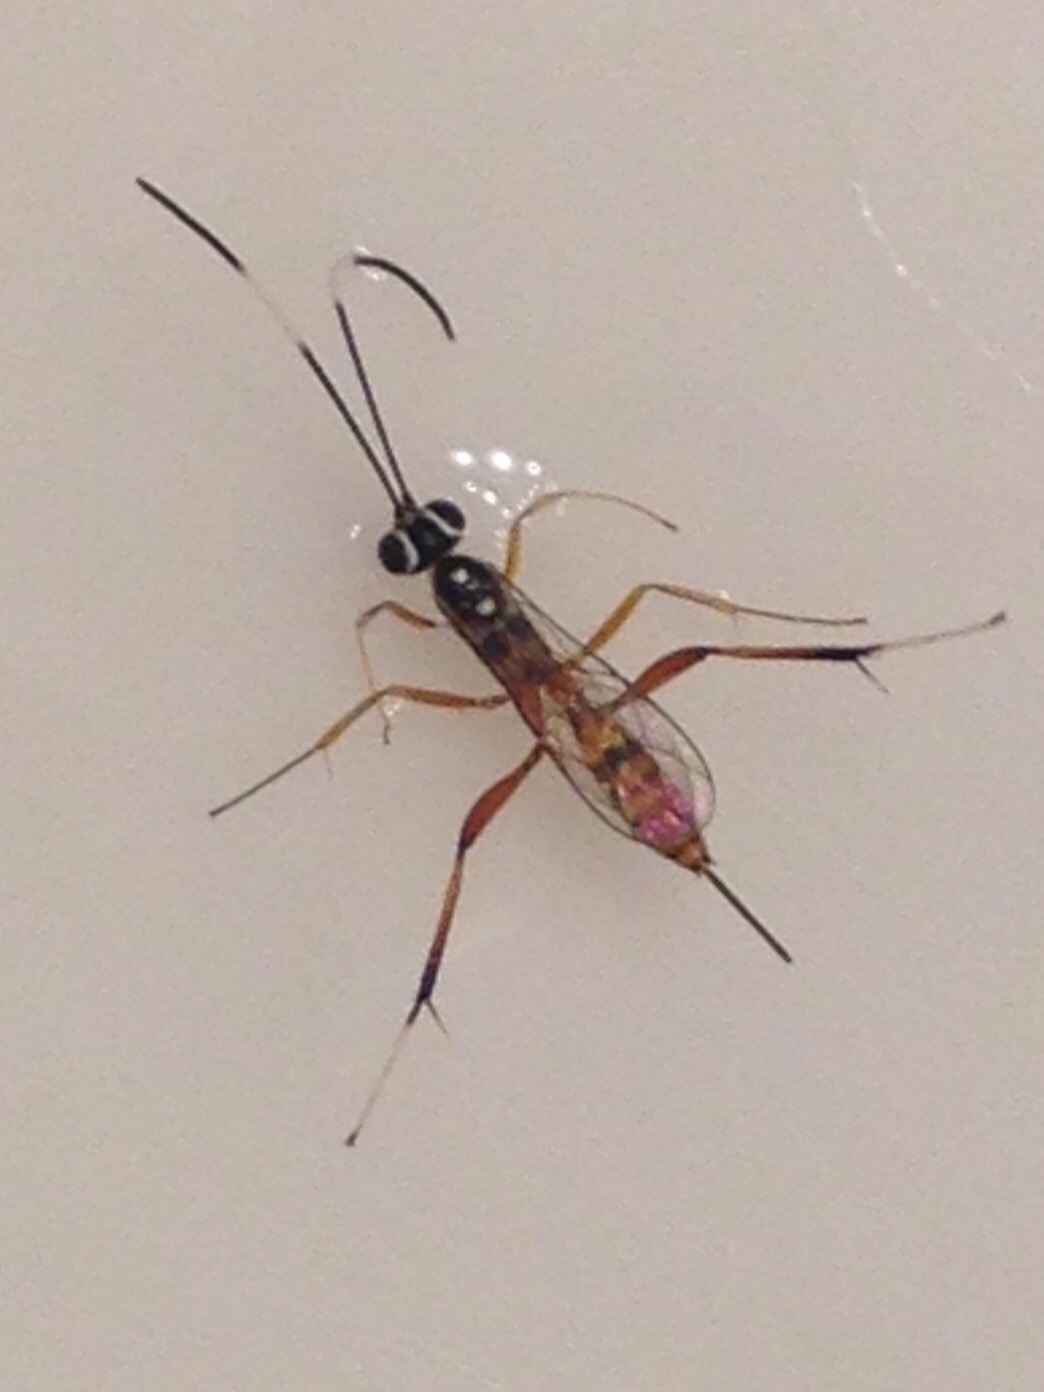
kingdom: Animalia
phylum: Arthropoda
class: Insecta
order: Hymenoptera
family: Ichneumonidae
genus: Messatoporus
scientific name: Messatoporus rufiventris
